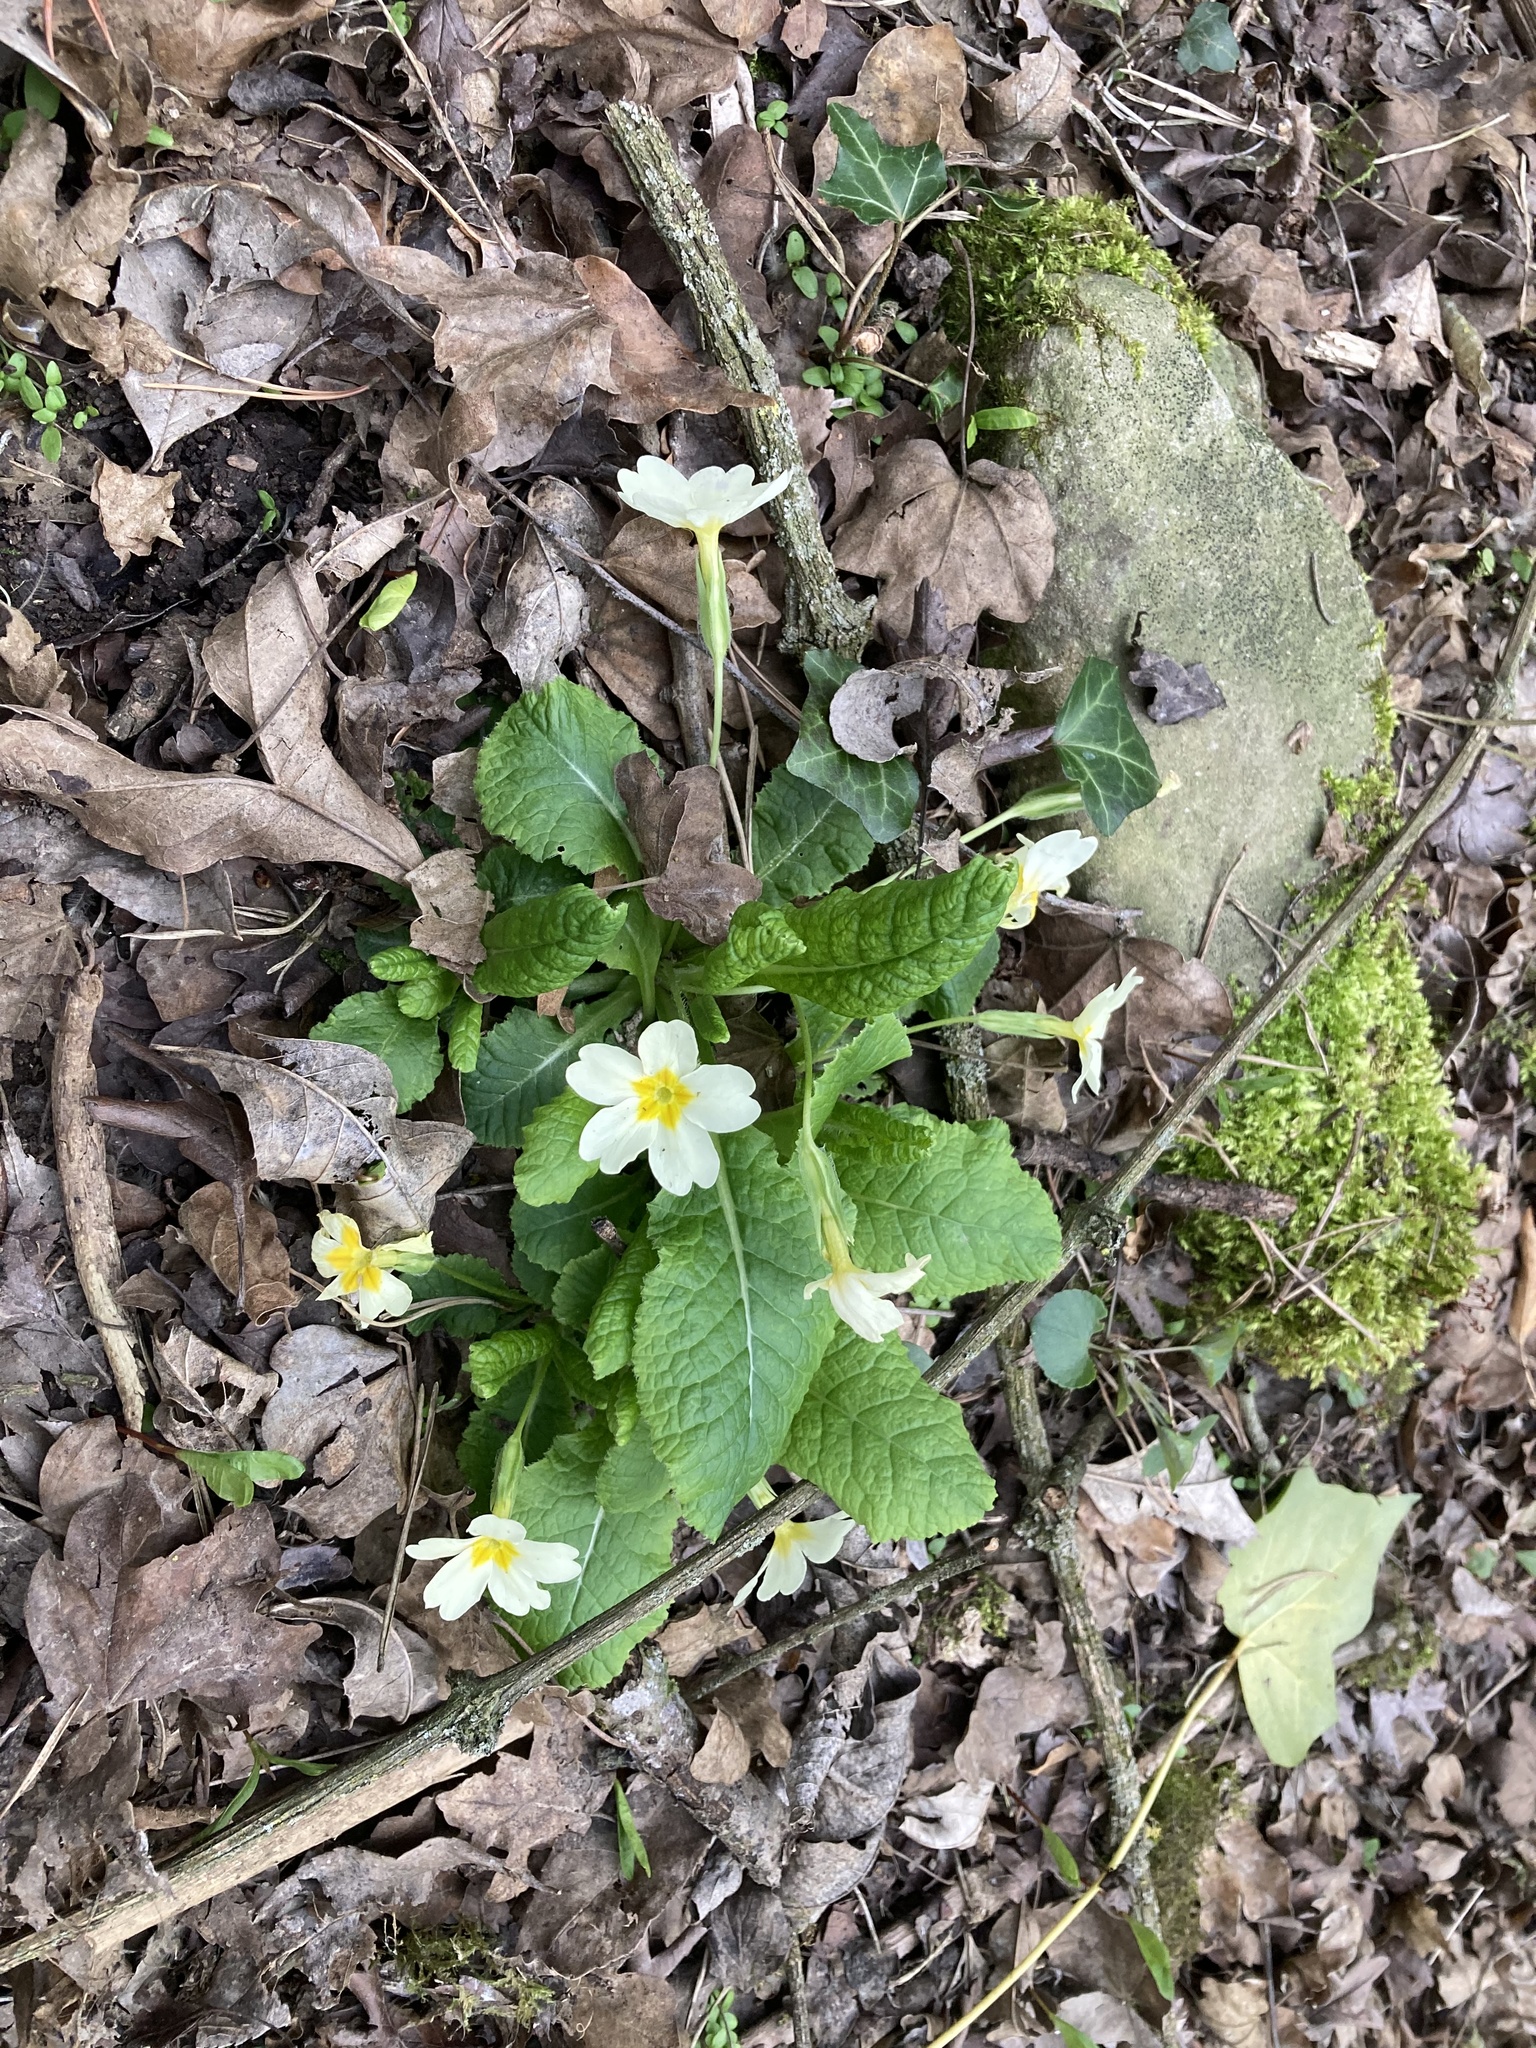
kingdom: Plantae
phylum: Tracheophyta
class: Magnoliopsida
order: Ericales
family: Primulaceae
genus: Primula
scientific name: Primula vulgaris
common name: Primrose
